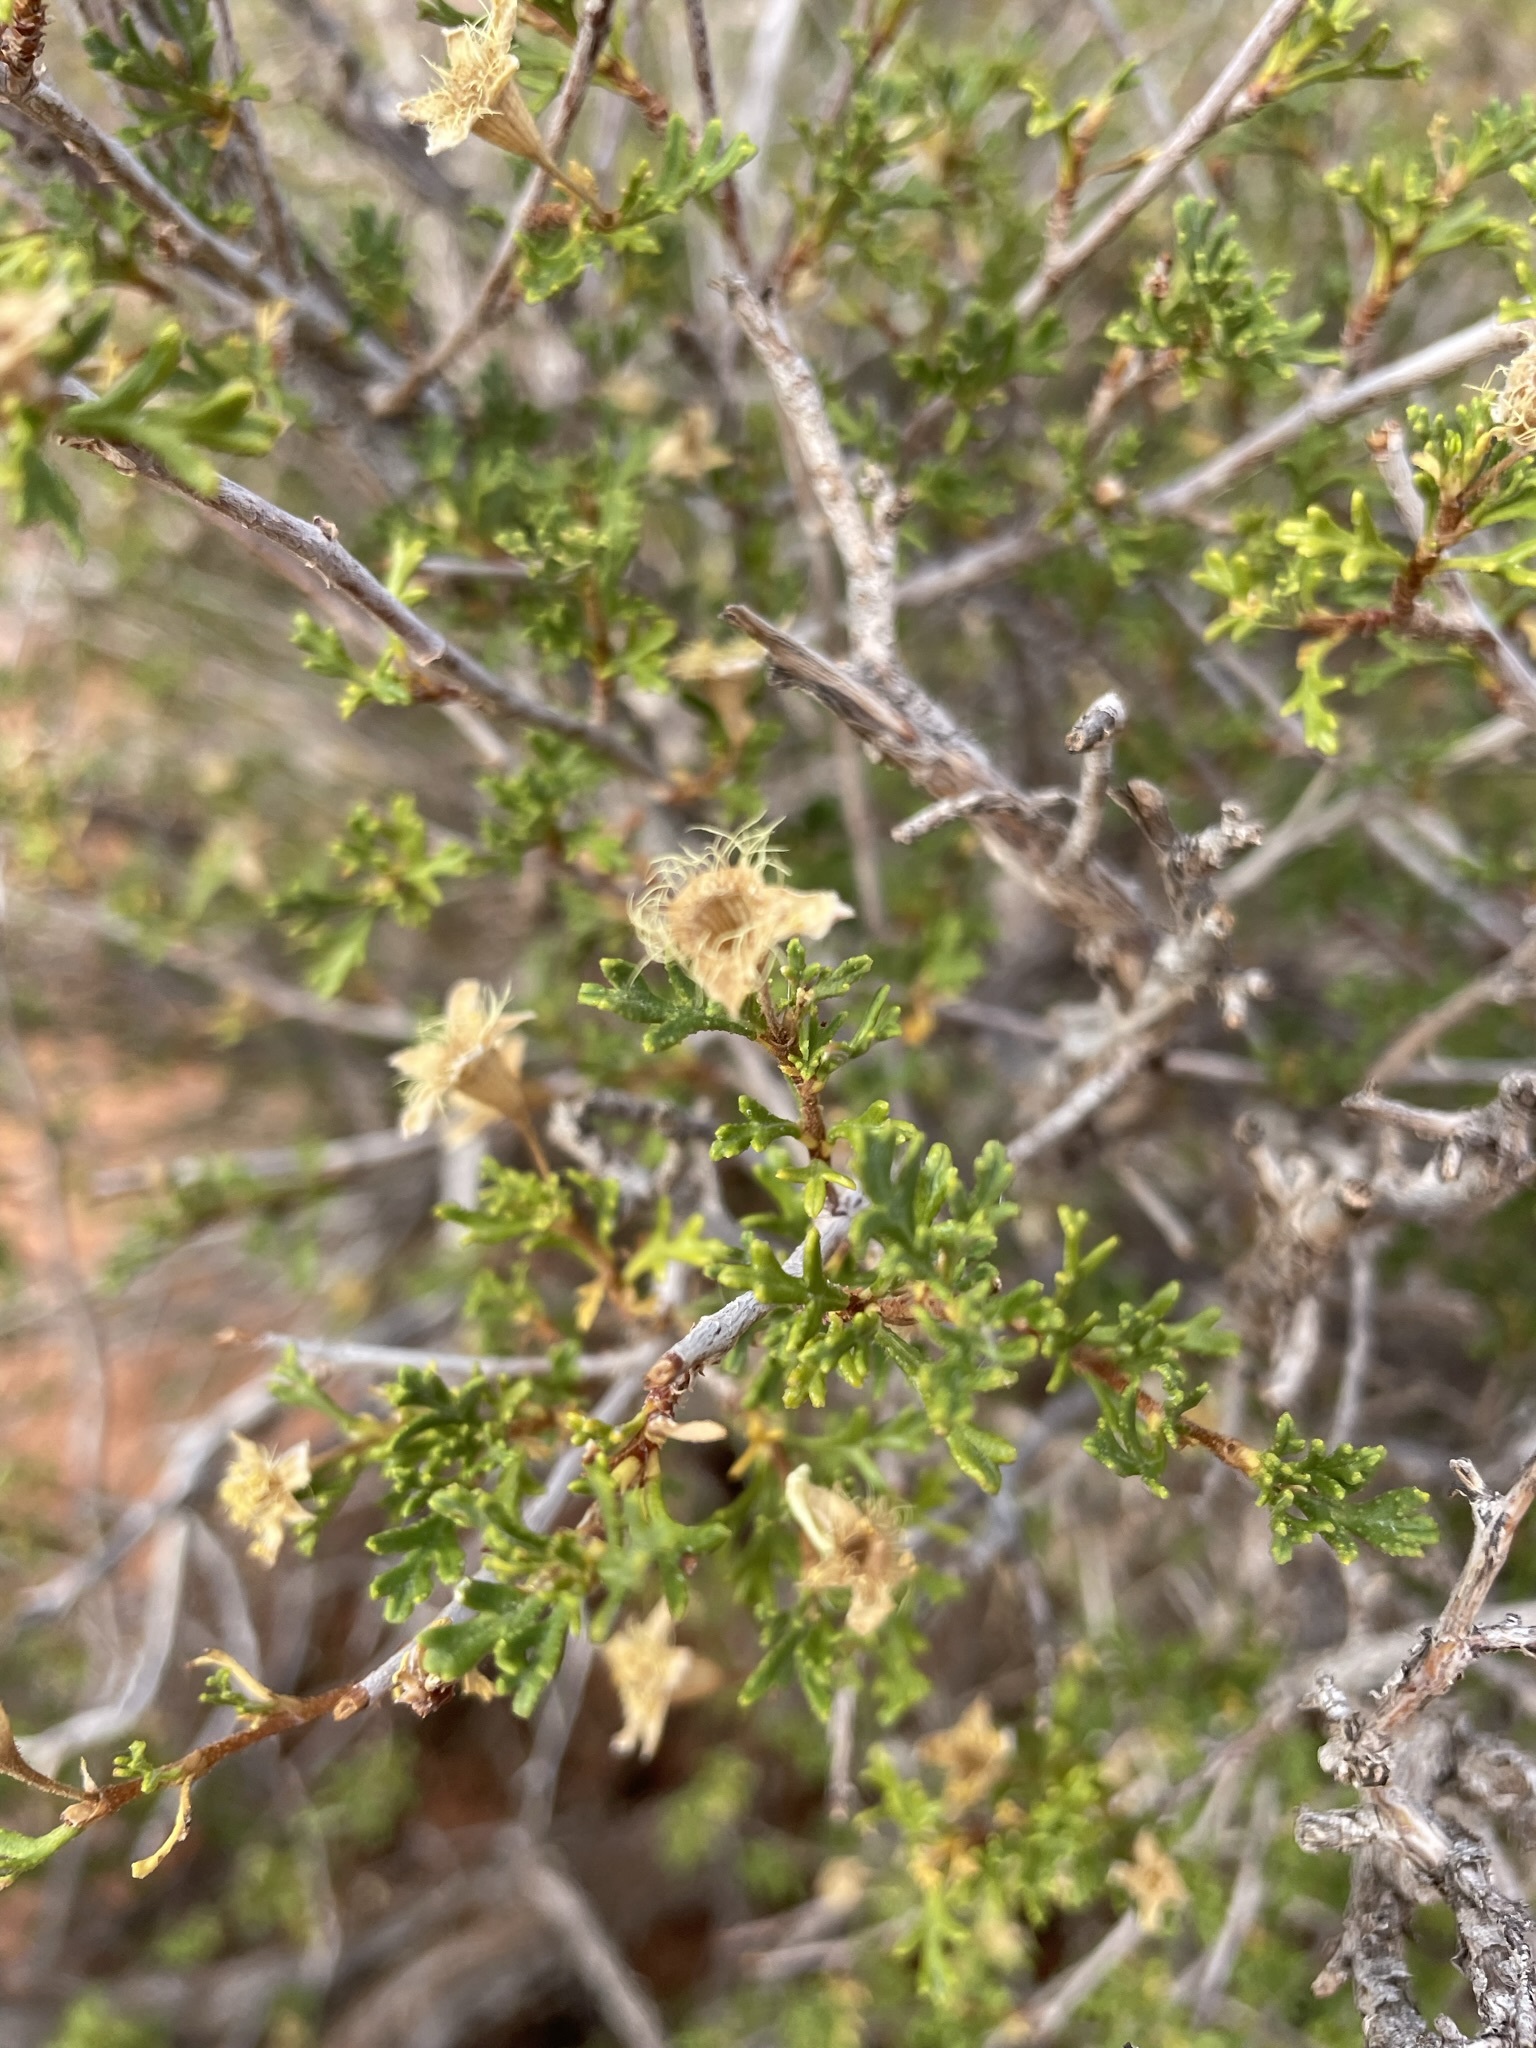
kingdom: Plantae
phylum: Tracheophyta
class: Magnoliopsida
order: Rosales
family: Rosaceae
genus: Purshia
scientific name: Purshia stansburiana
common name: Stansbury's cliffrose
